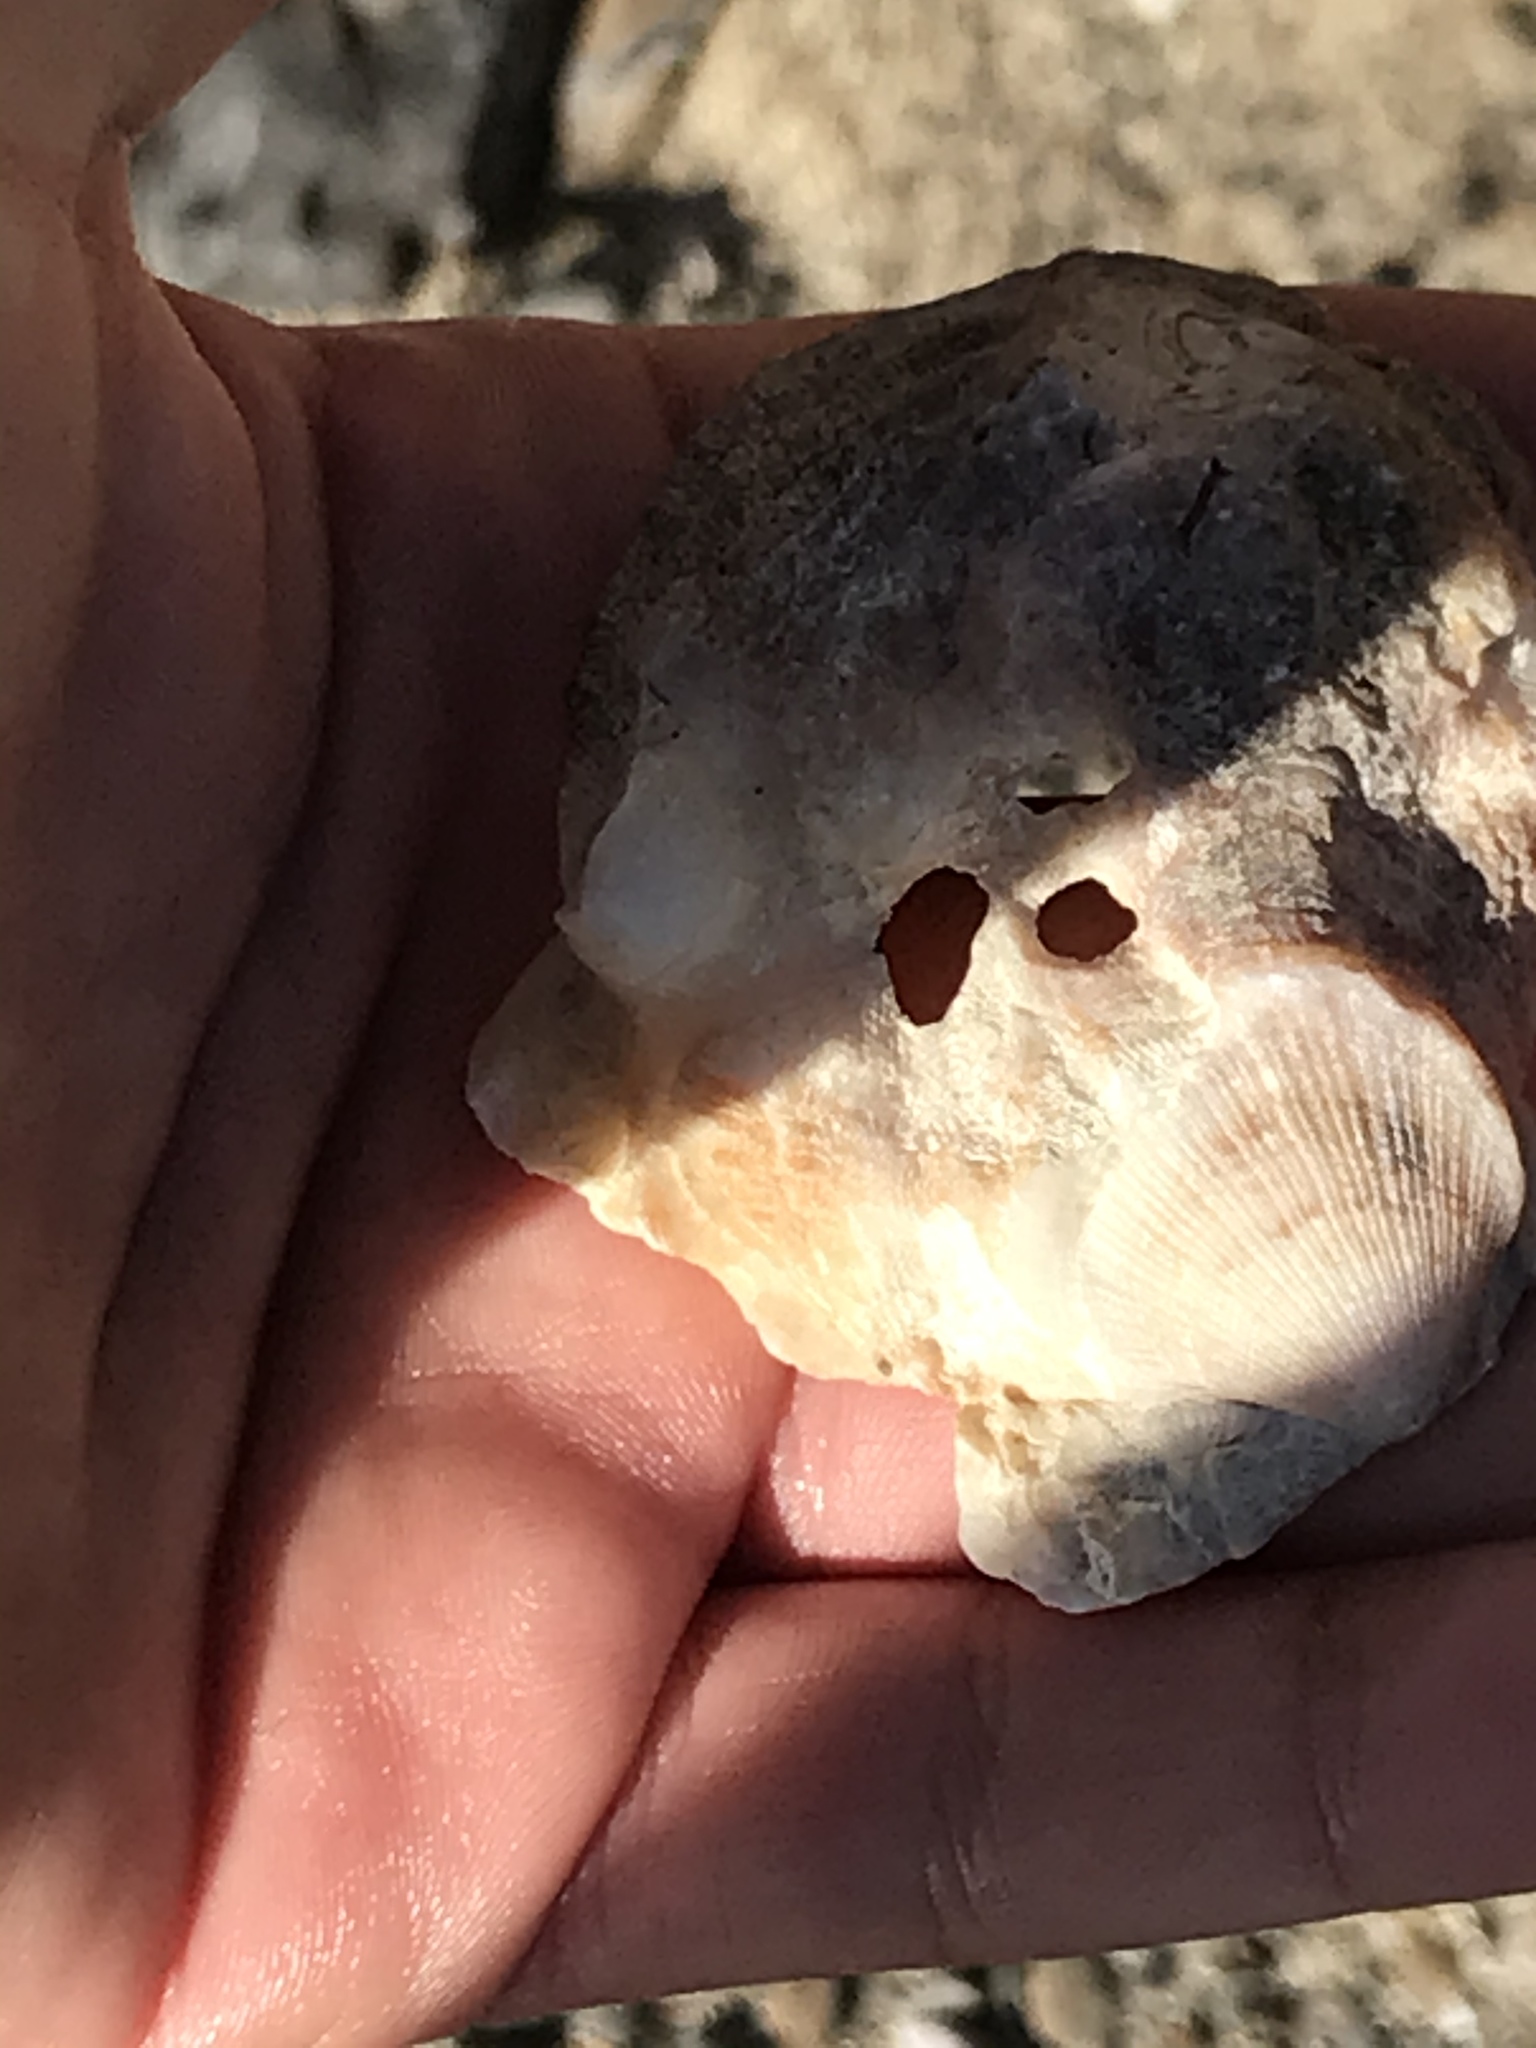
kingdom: Animalia
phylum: Mollusca
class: Bivalvia
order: Pectinida
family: Pectinidae
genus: Crassadoma
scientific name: Crassadoma gigantea
